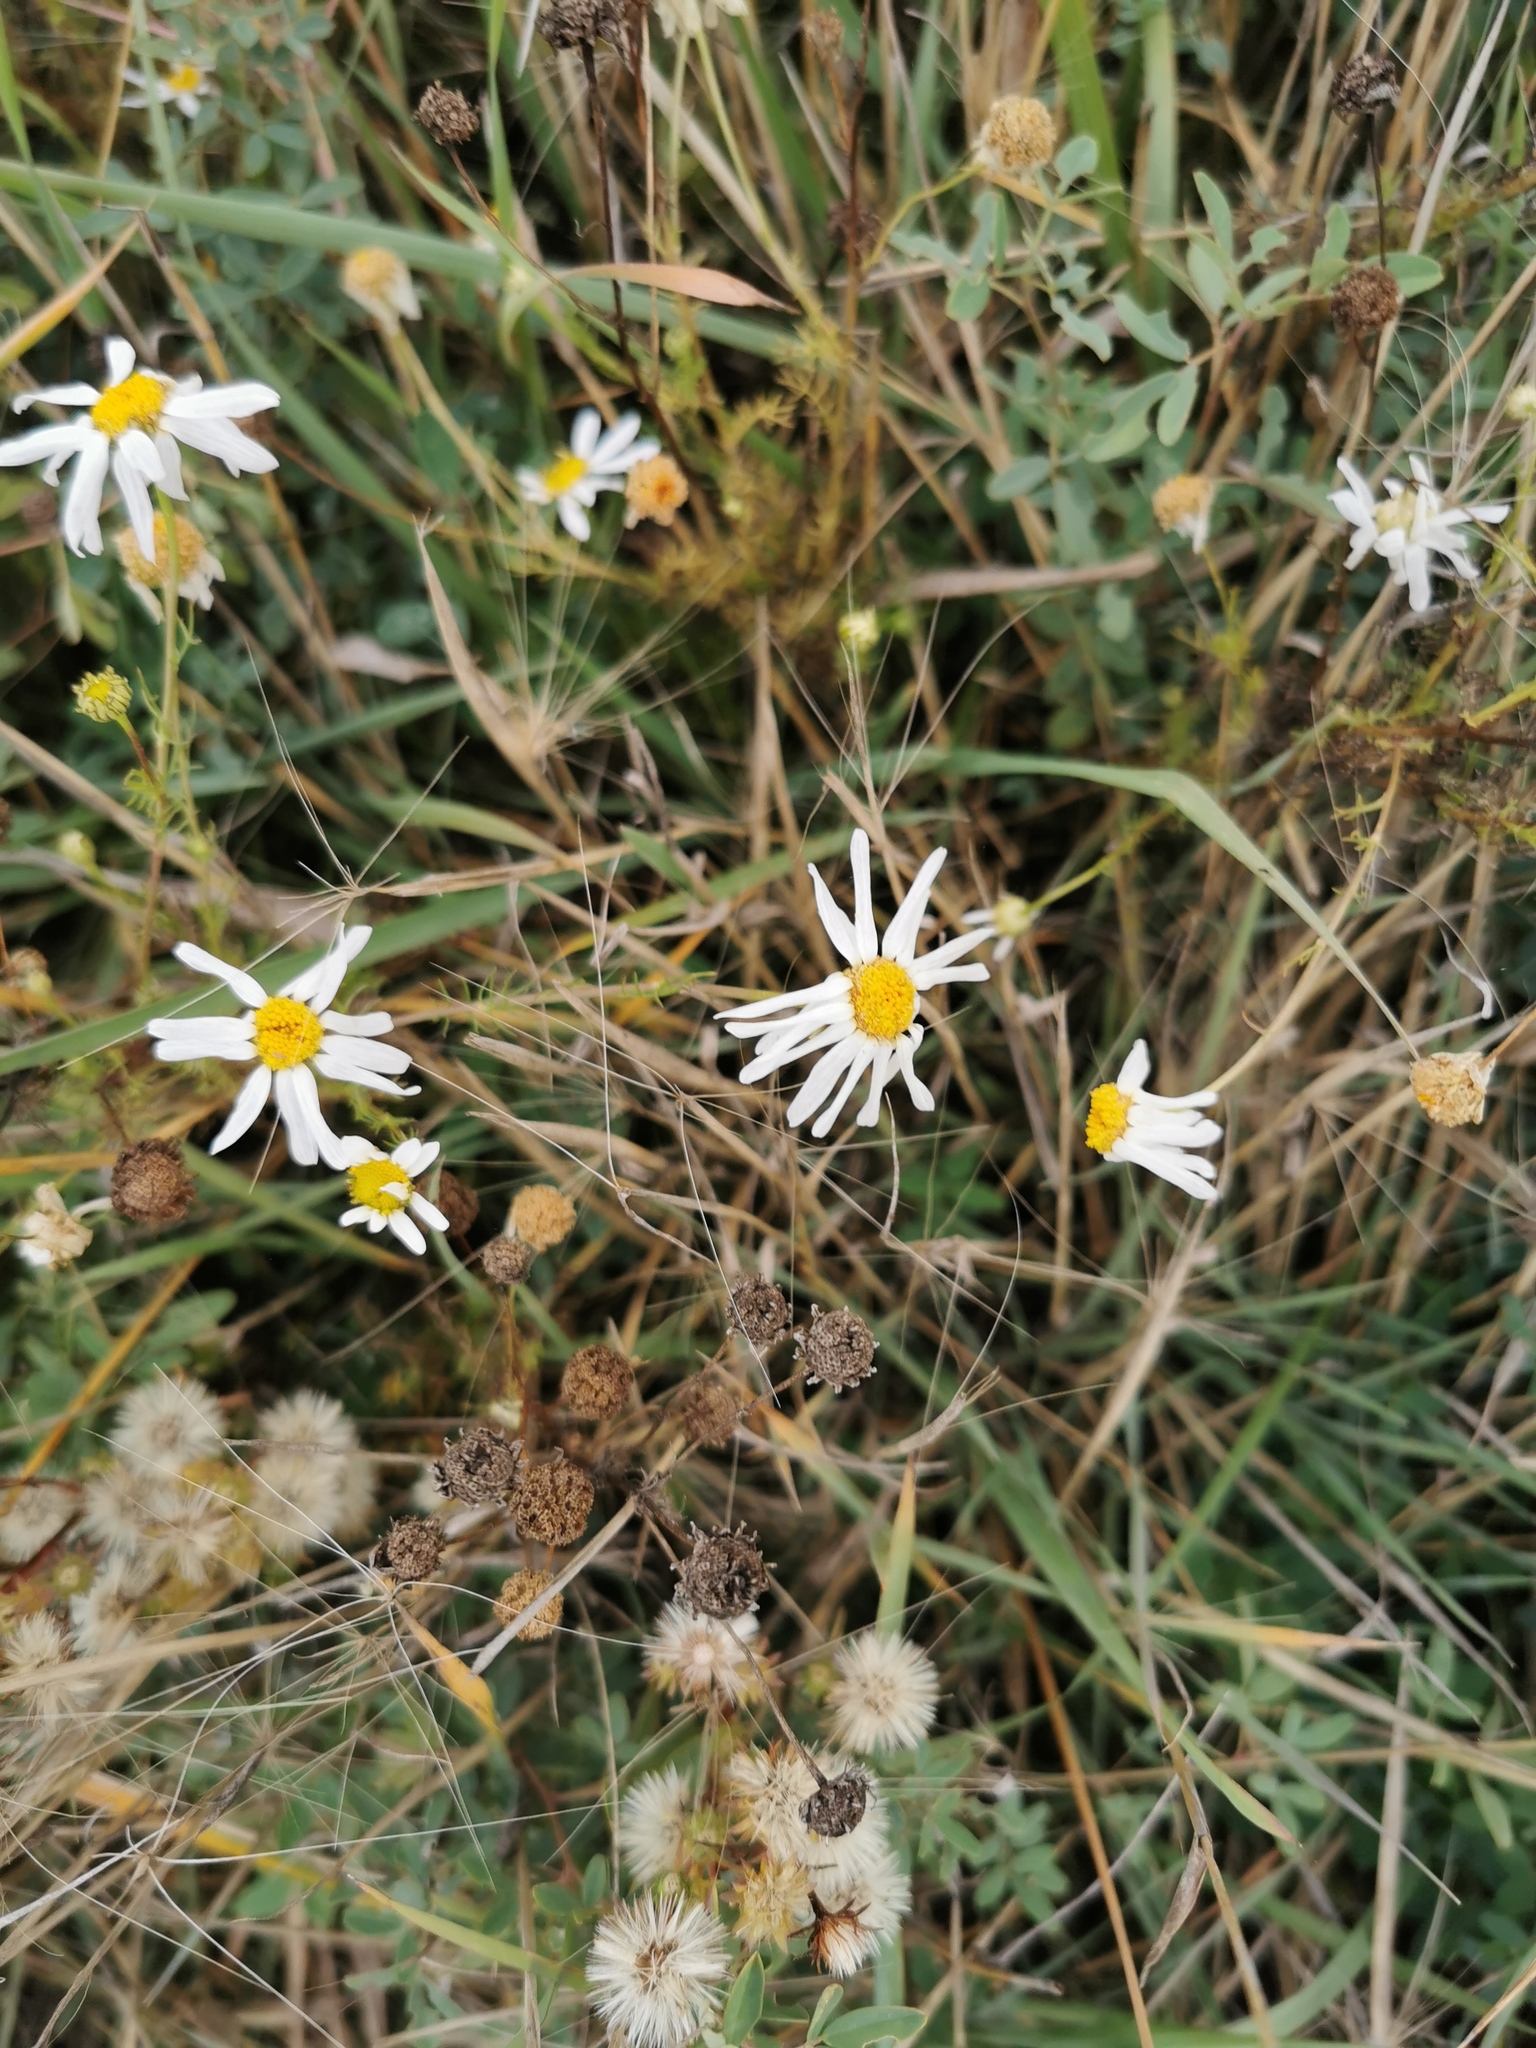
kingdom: Plantae
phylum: Tracheophyta
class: Magnoliopsida
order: Asterales
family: Asteraceae
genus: Tripleurospermum
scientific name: Tripleurospermum inodorum
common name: Scentless mayweed
